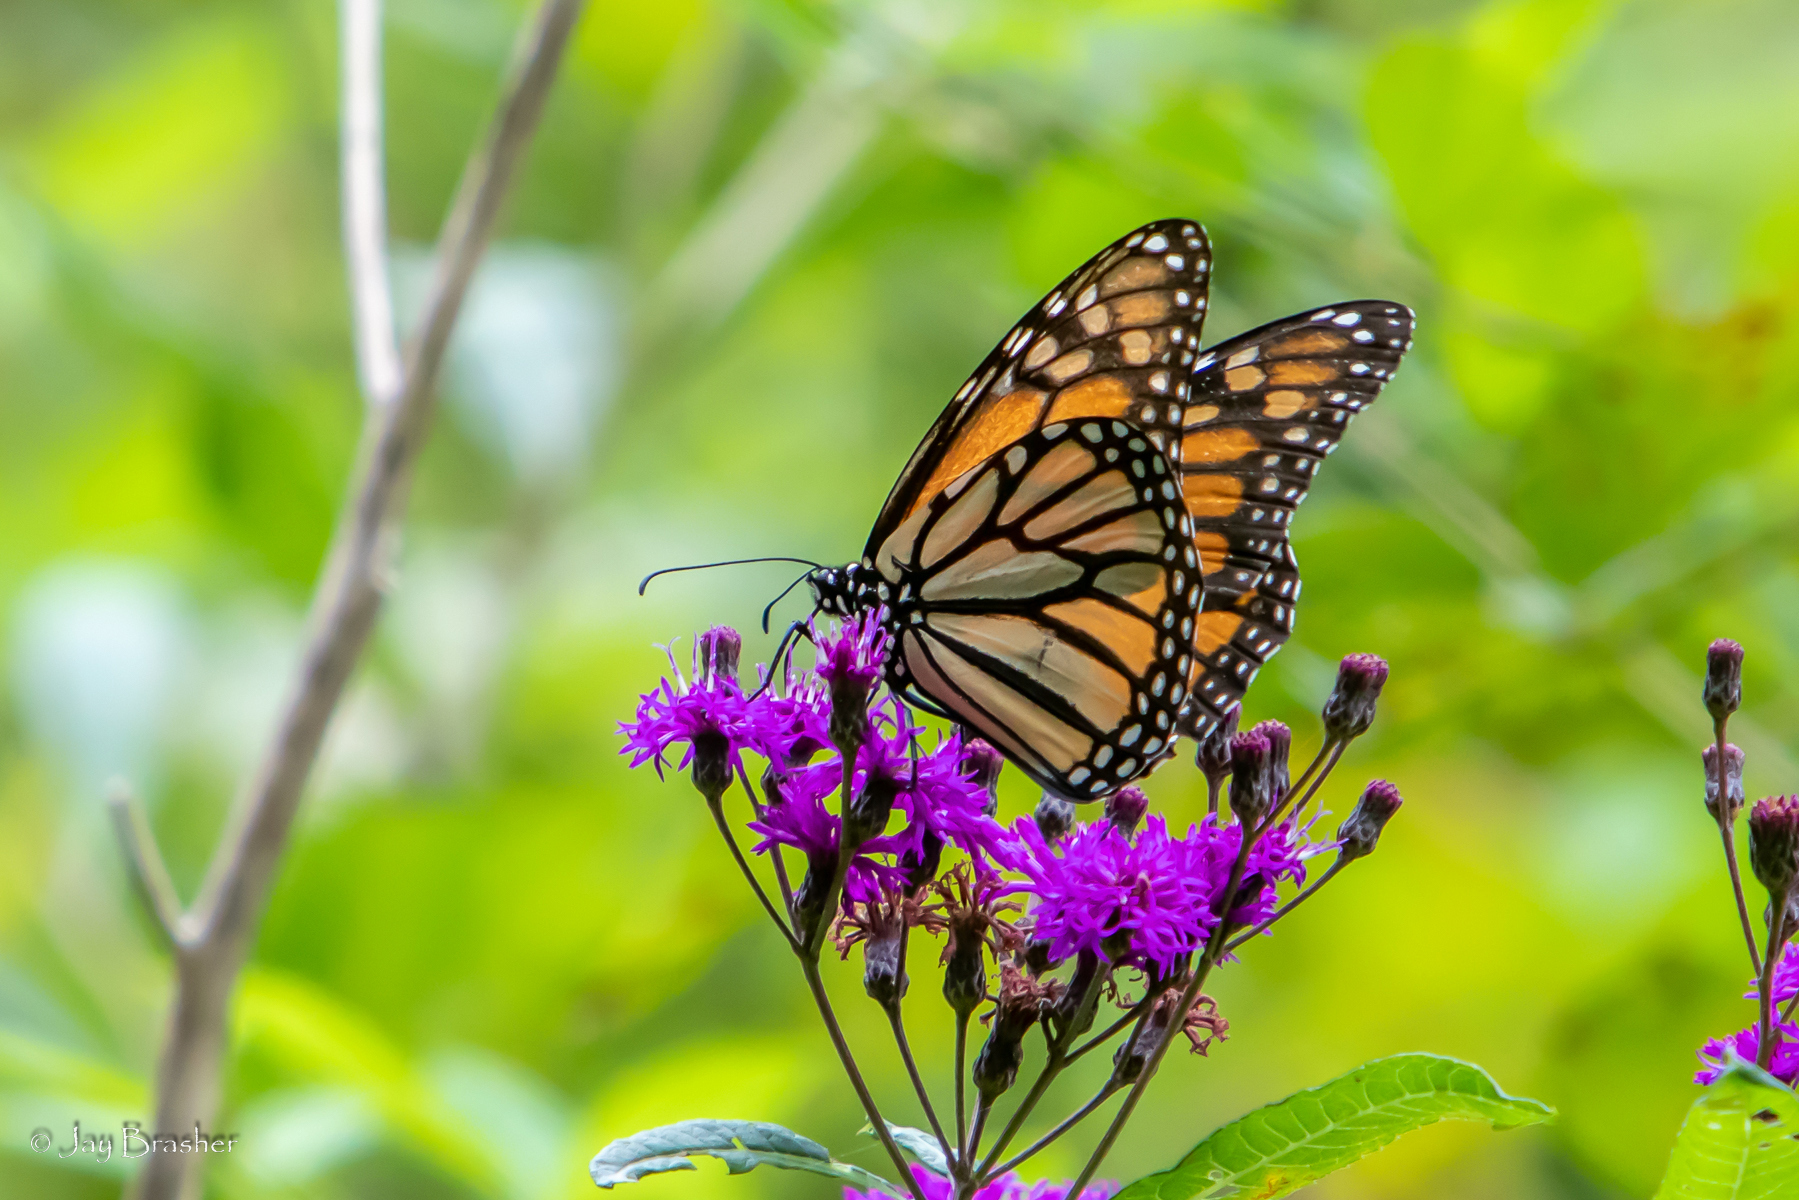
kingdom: Animalia
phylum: Arthropoda
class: Insecta
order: Lepidoptera
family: Nymphalidae
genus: Danaus
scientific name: Danaus plexippus
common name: Monarch
